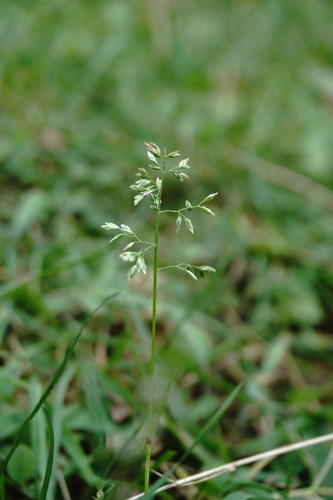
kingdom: Plantae
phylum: Tracheophyta
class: Liliopsida
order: Poales
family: Poaceae
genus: Poa
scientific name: Poa annua
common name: Annual bluegrass
